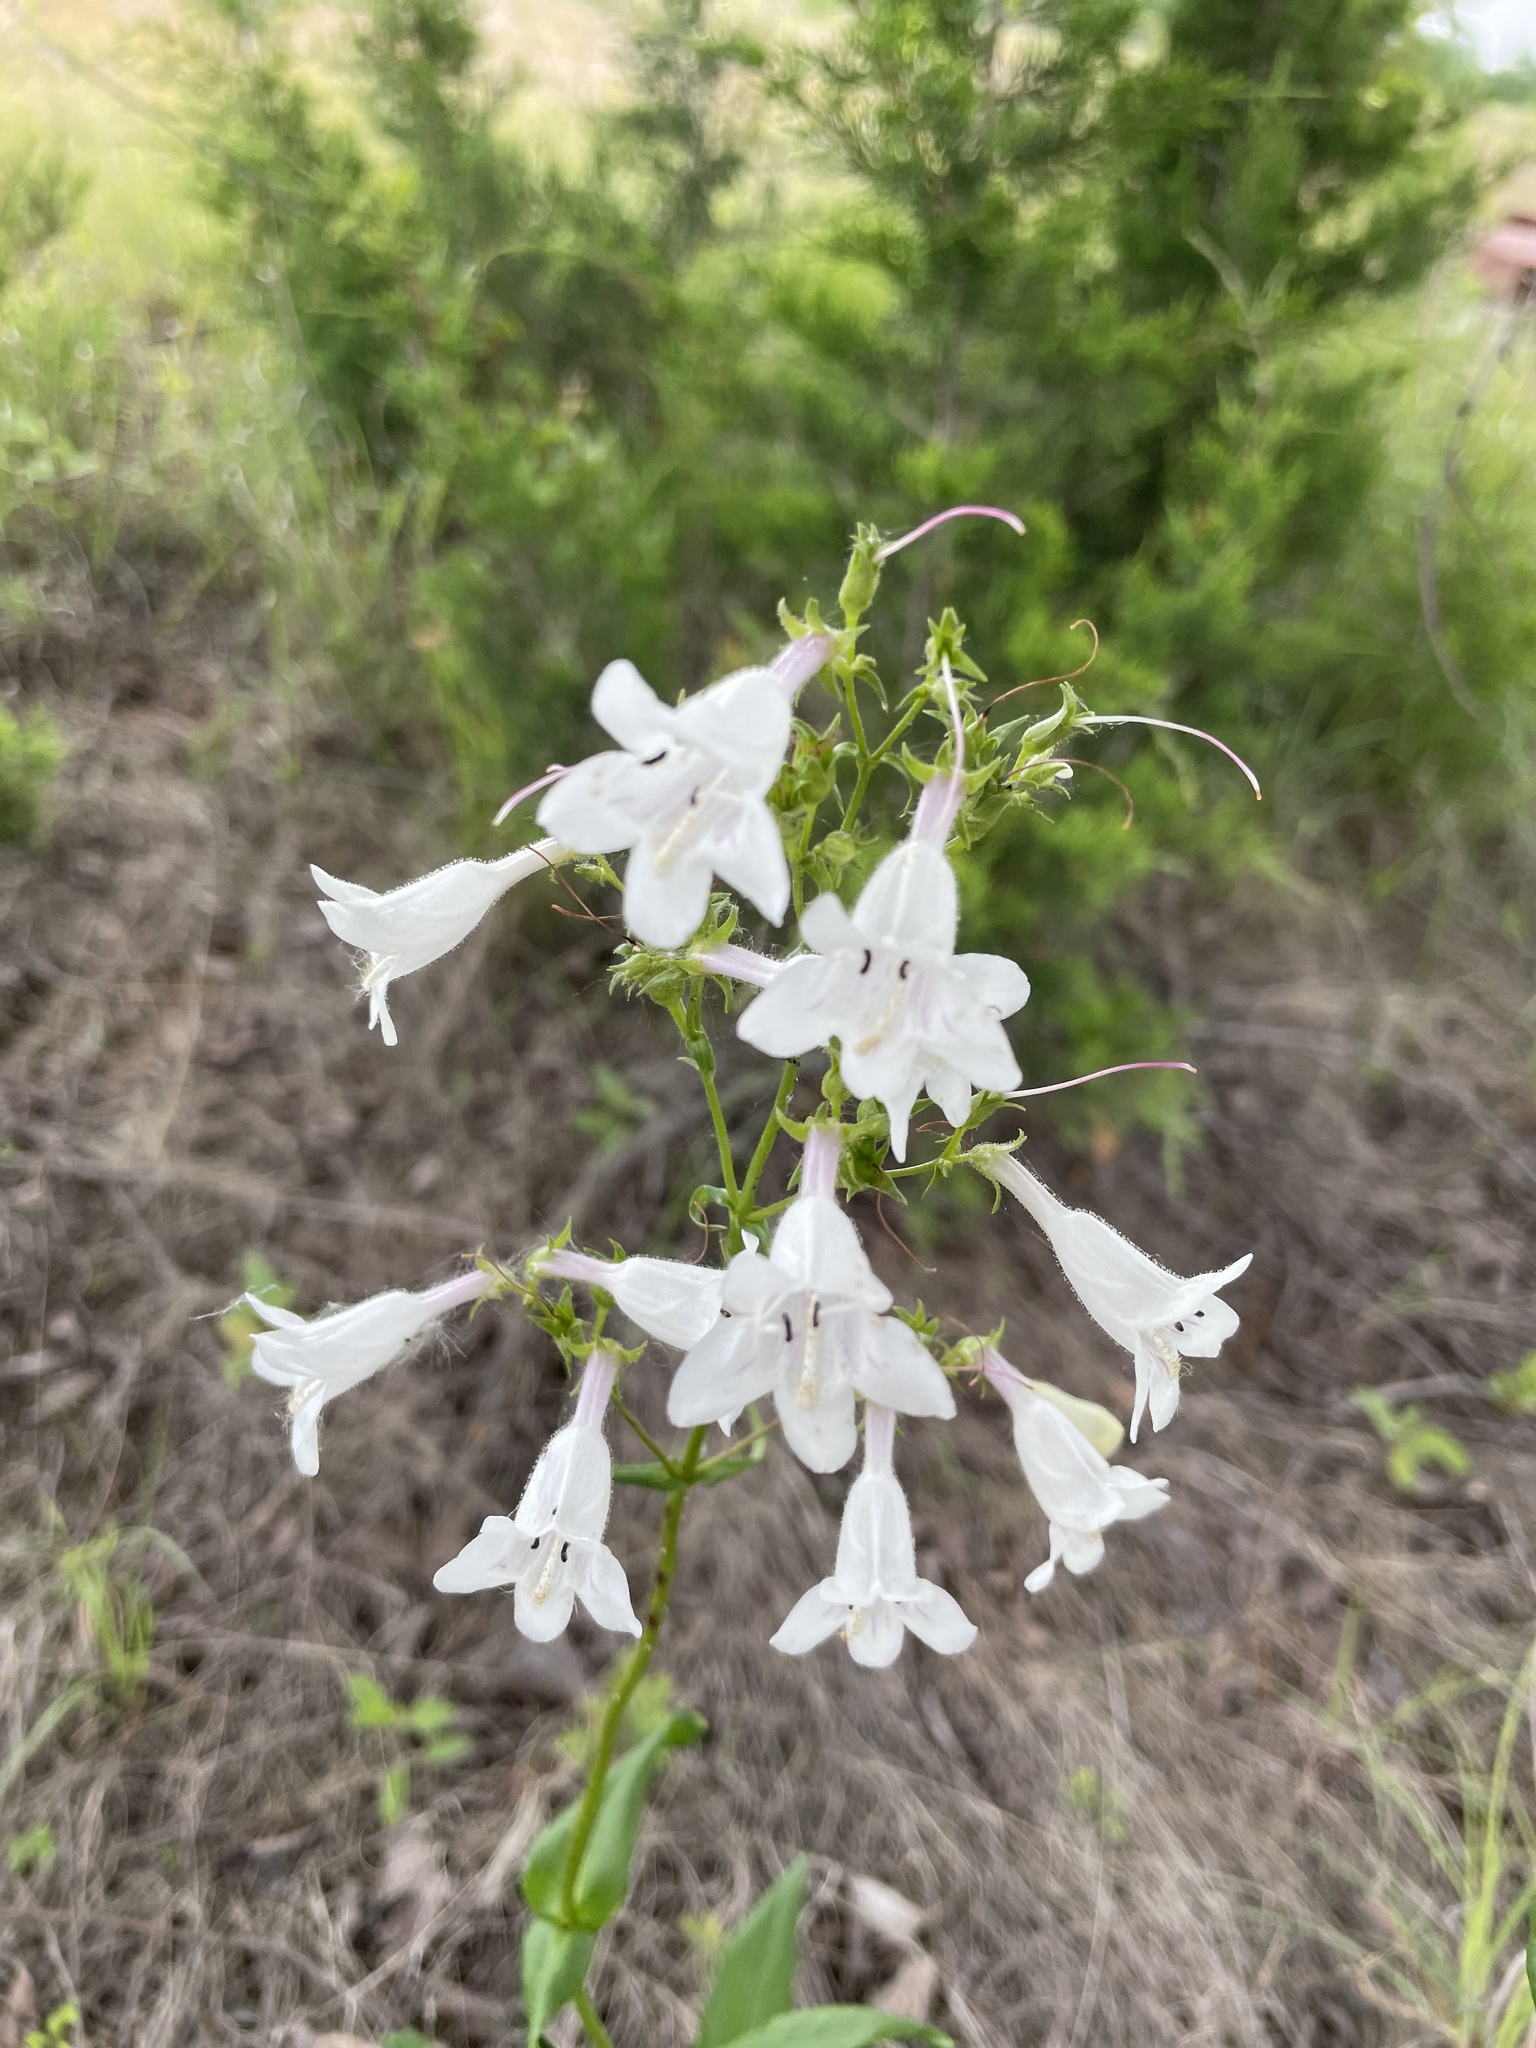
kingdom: Plantae
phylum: Tracheophyta
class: Magnoliopsida
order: Lamiales
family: Plantaginaceae
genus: Penstemon
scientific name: Penstemon digitalis
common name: Foxglove beardtongue
